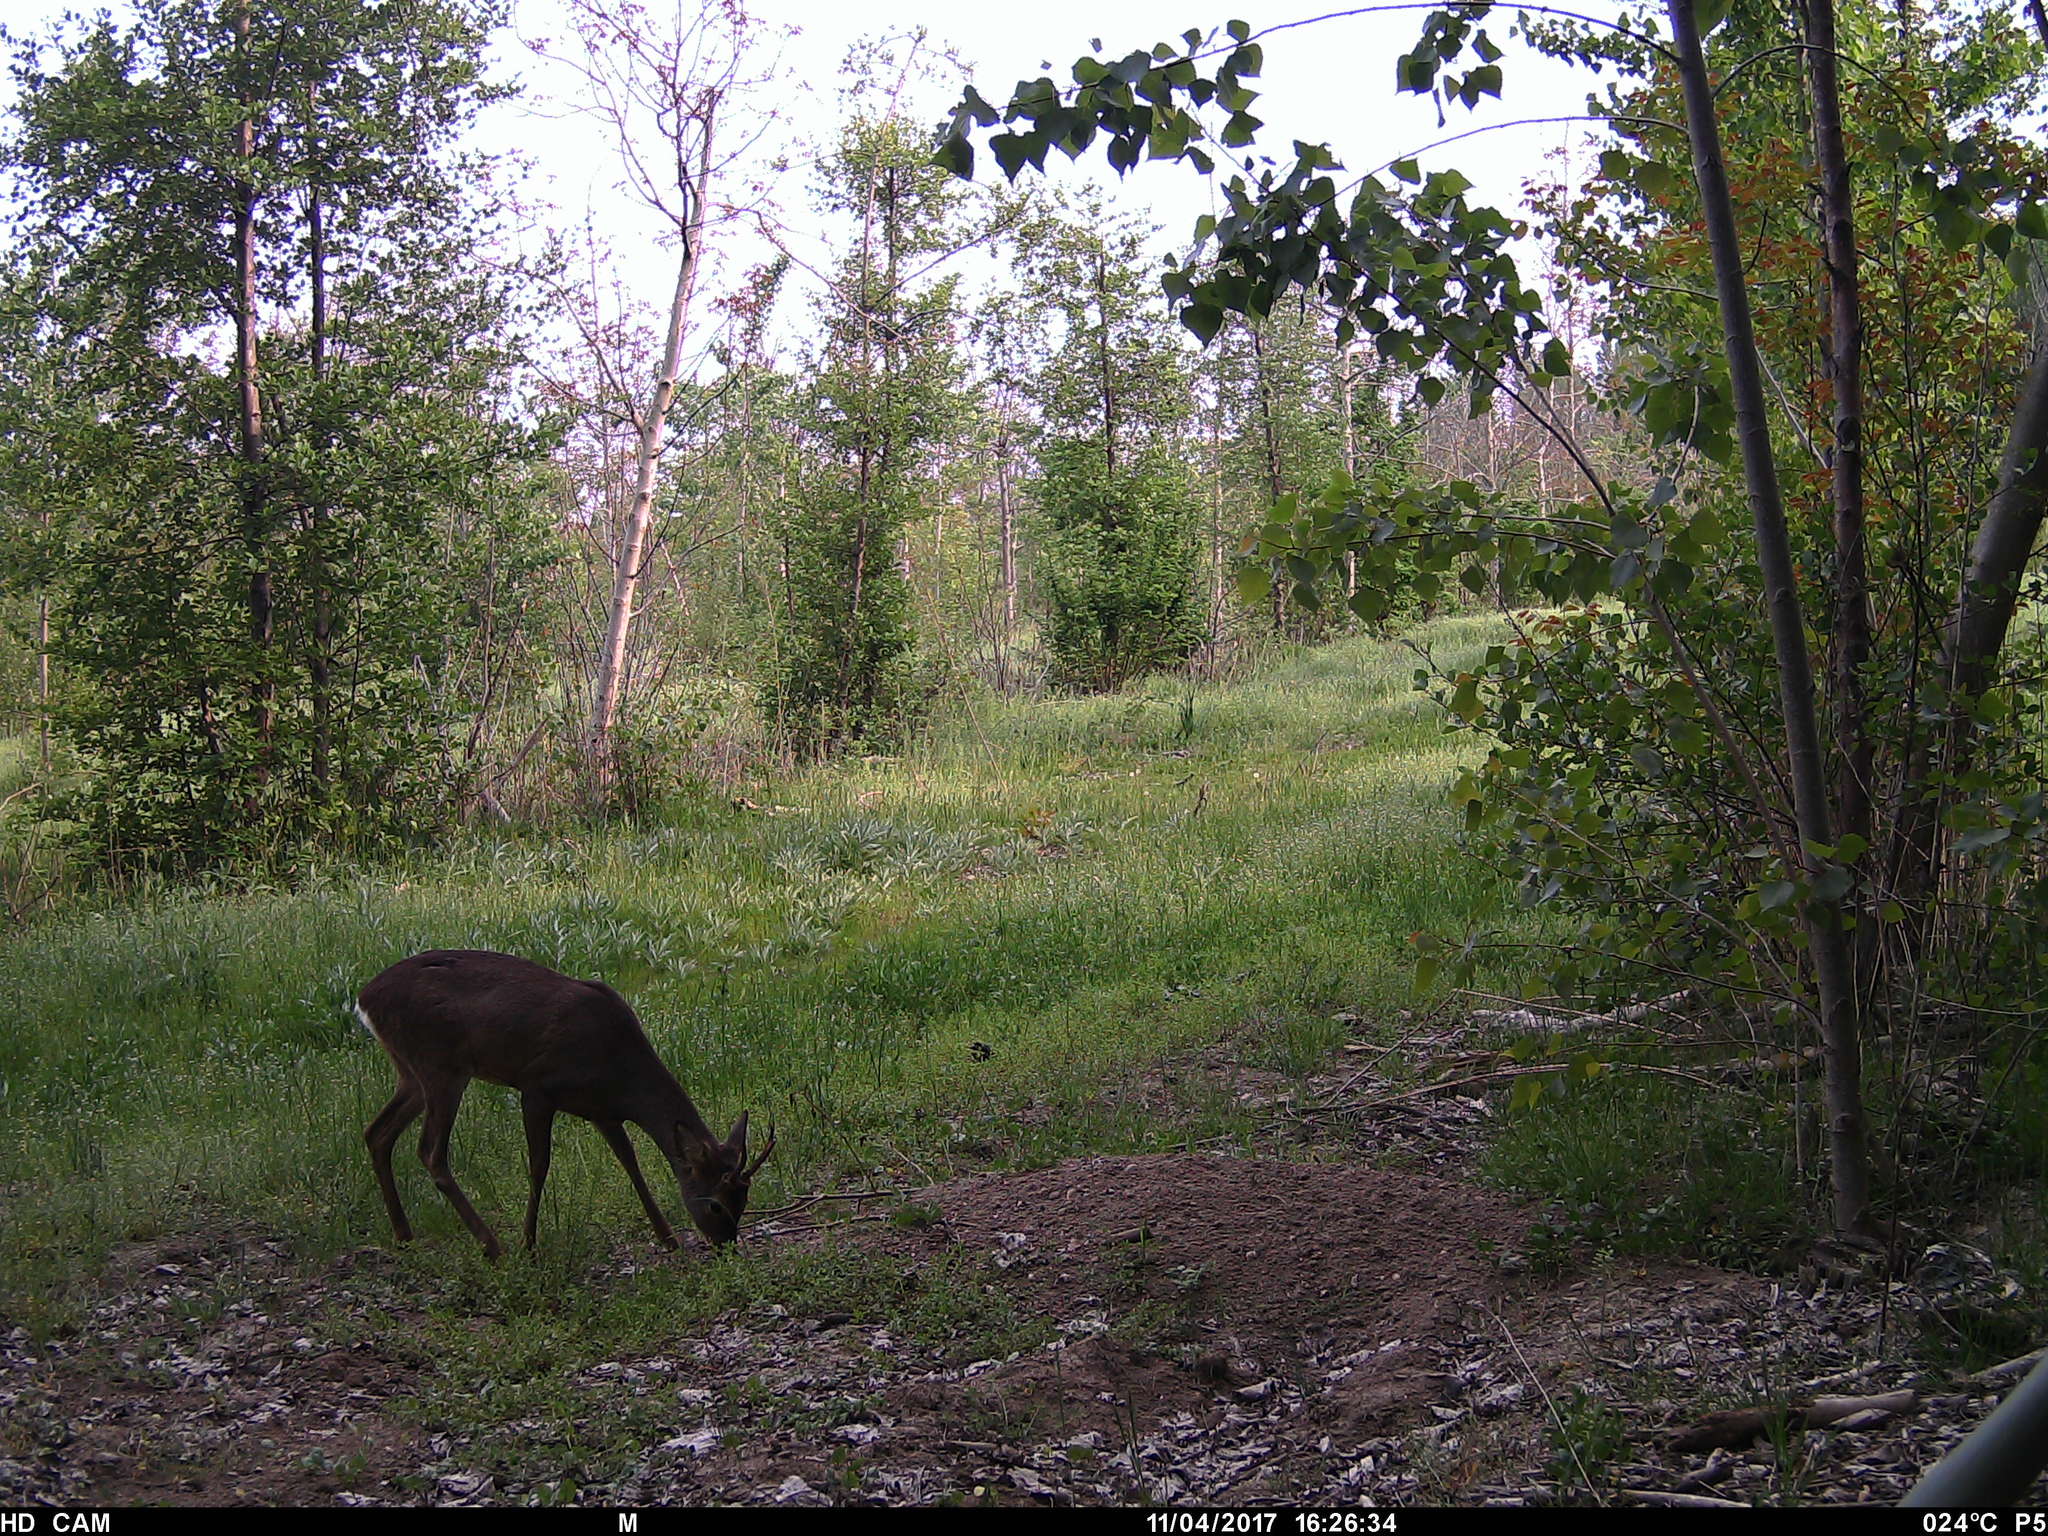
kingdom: Animalia
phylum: Chordata
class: Mammalia
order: Artiodactyla
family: Cervidae
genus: Capreolus
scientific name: Capreolus capreolus
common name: Western roe deer
